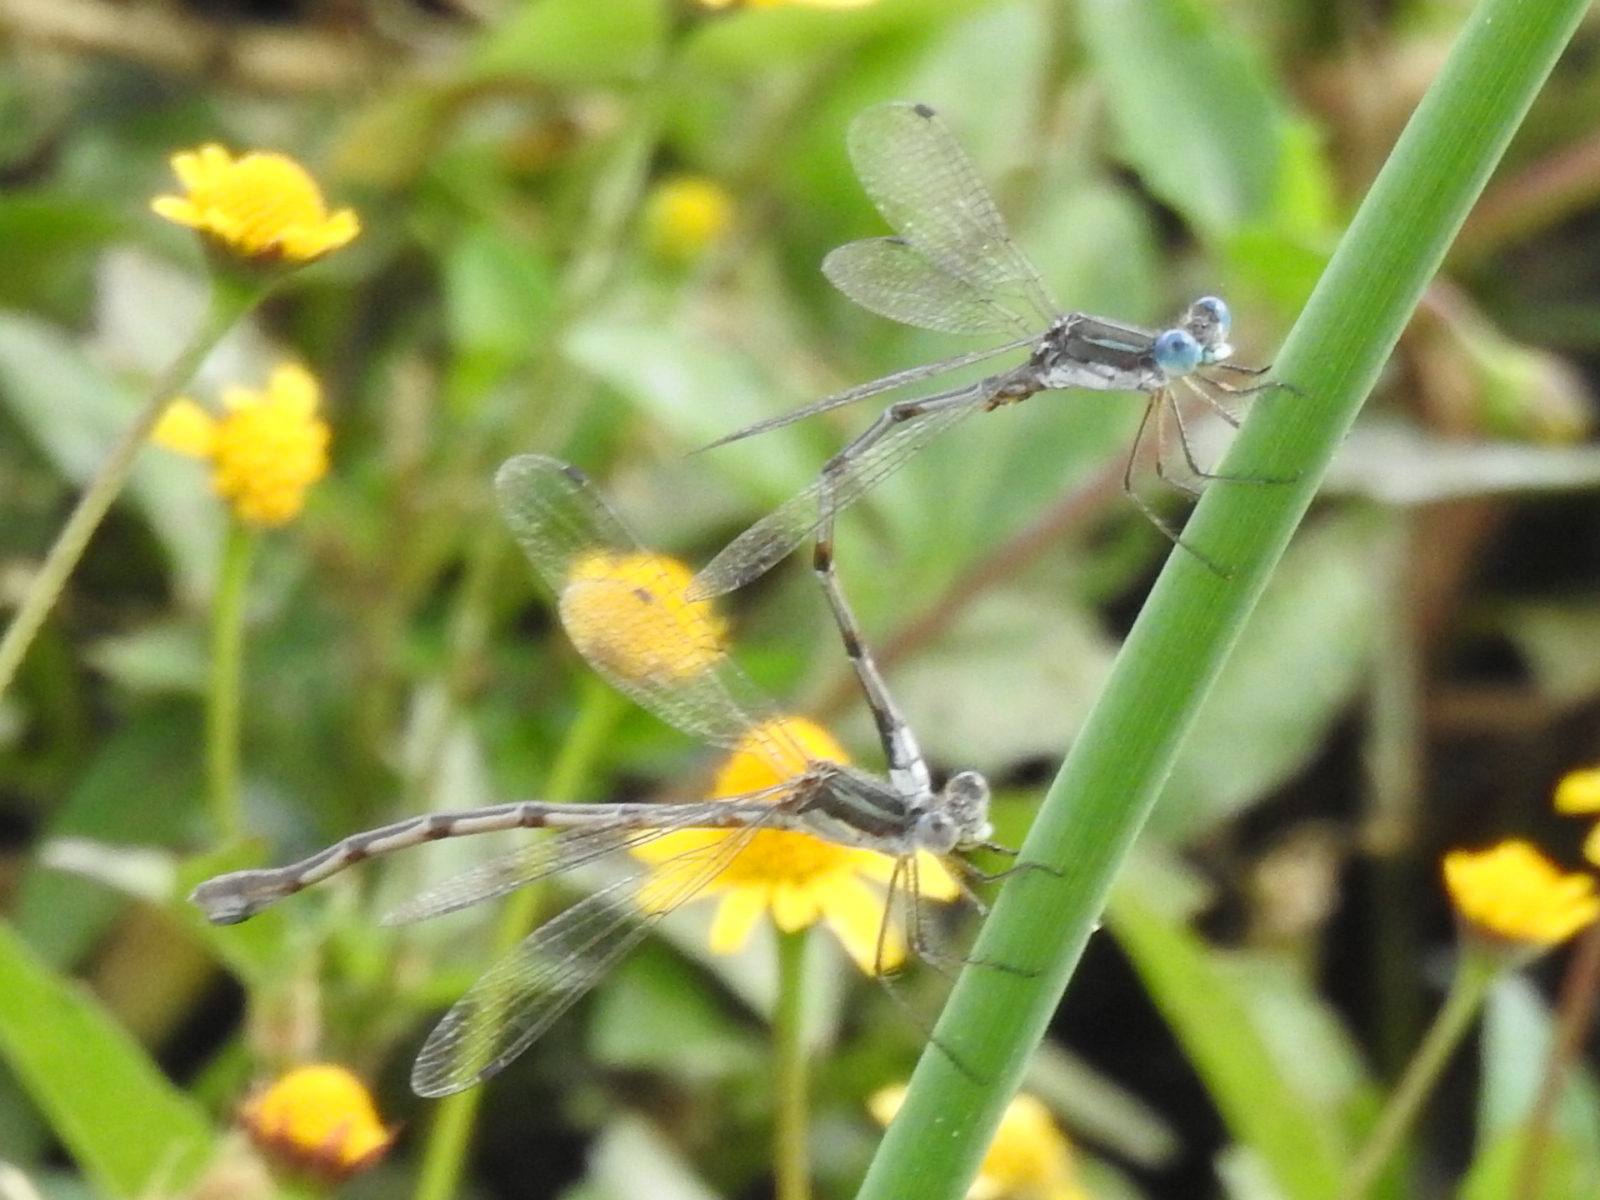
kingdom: Animalia
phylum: Arthropoda
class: Insecta
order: Odonata
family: Lestidae
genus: Lestes
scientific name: Lestes australis
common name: Southern spreadwing
